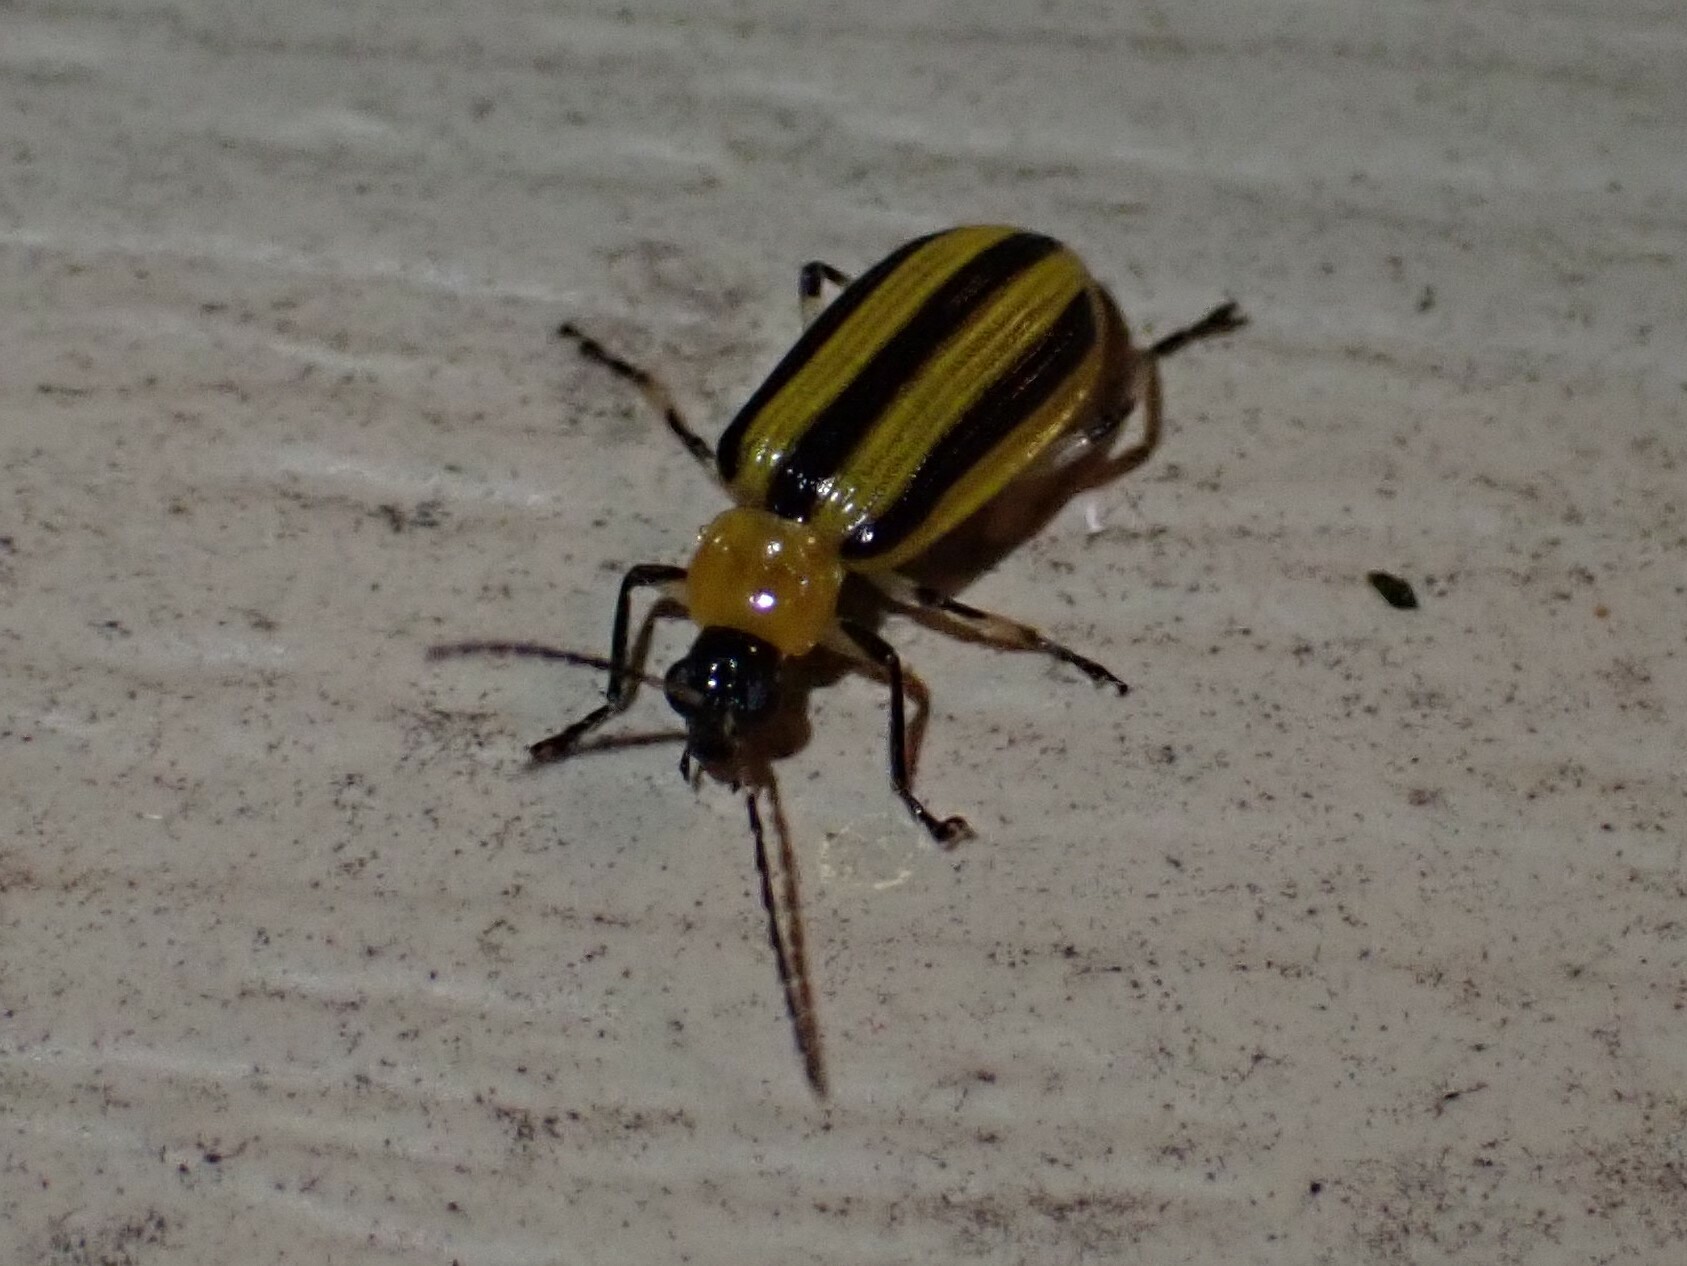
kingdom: Animalia
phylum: Arthropoda
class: Insecta
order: Coleoptera
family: Chrysomelidae
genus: Acalymma
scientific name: Acalymma vittatum
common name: Striped cucumber beetle
